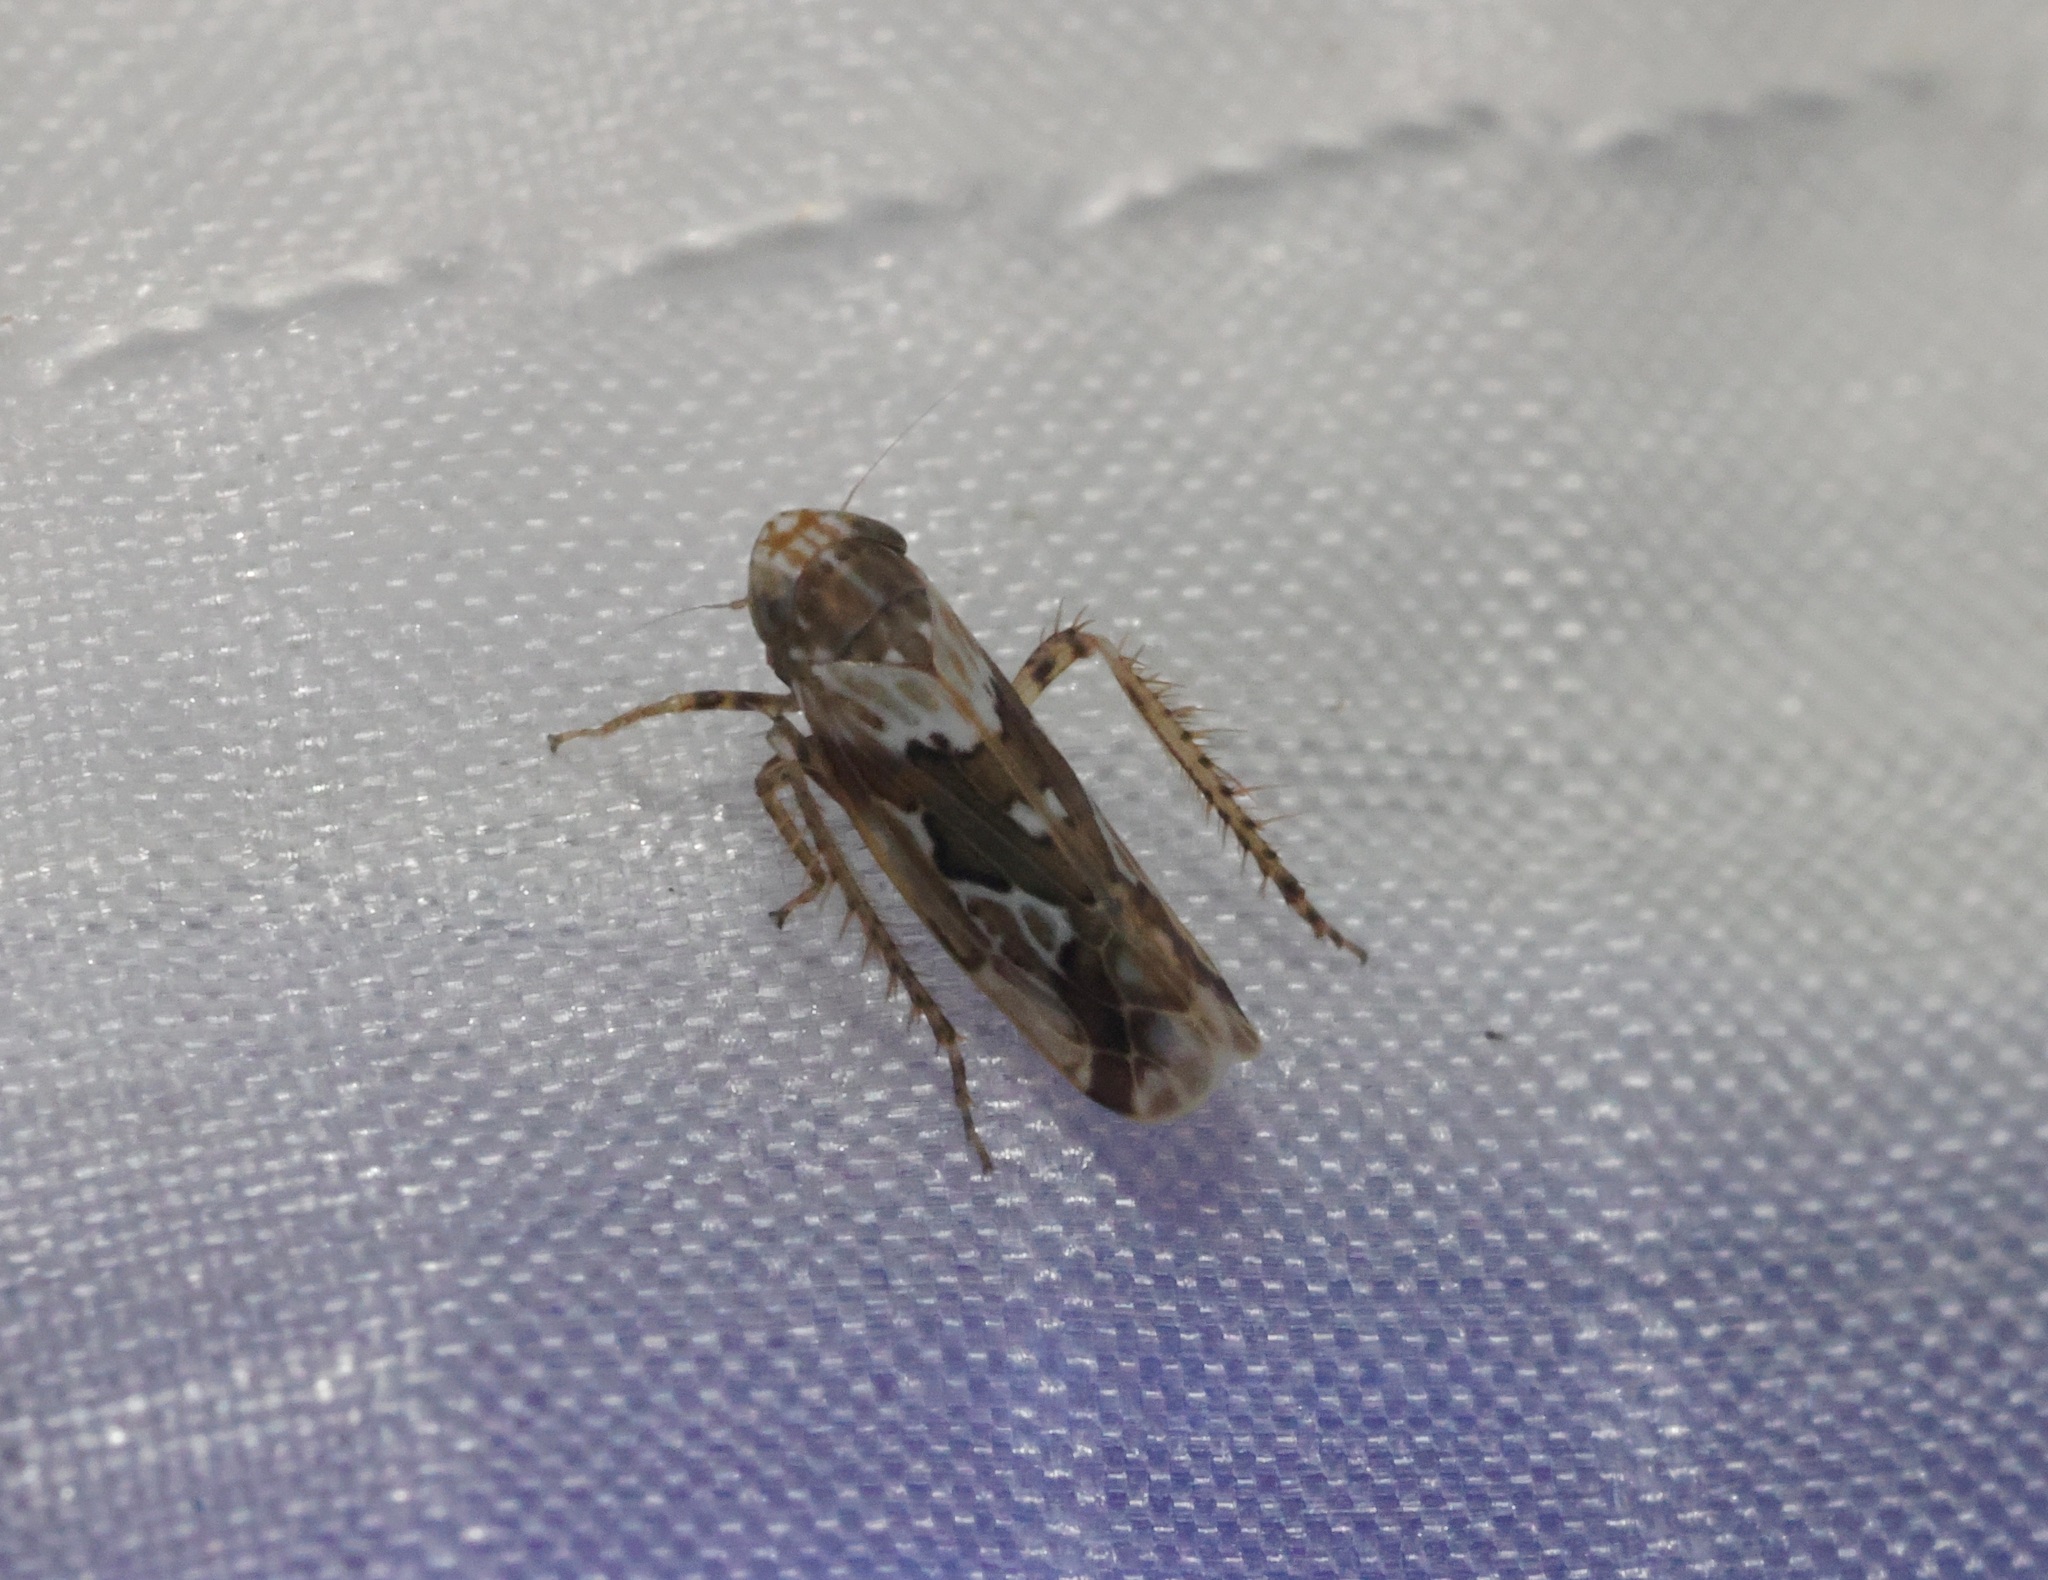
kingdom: Animalia
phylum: Arthropoda
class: Insecta
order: Hemiptera
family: Cicadellidae
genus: Maiestas
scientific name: Maiestas dorsalis
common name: Zig-zag leafhopper
